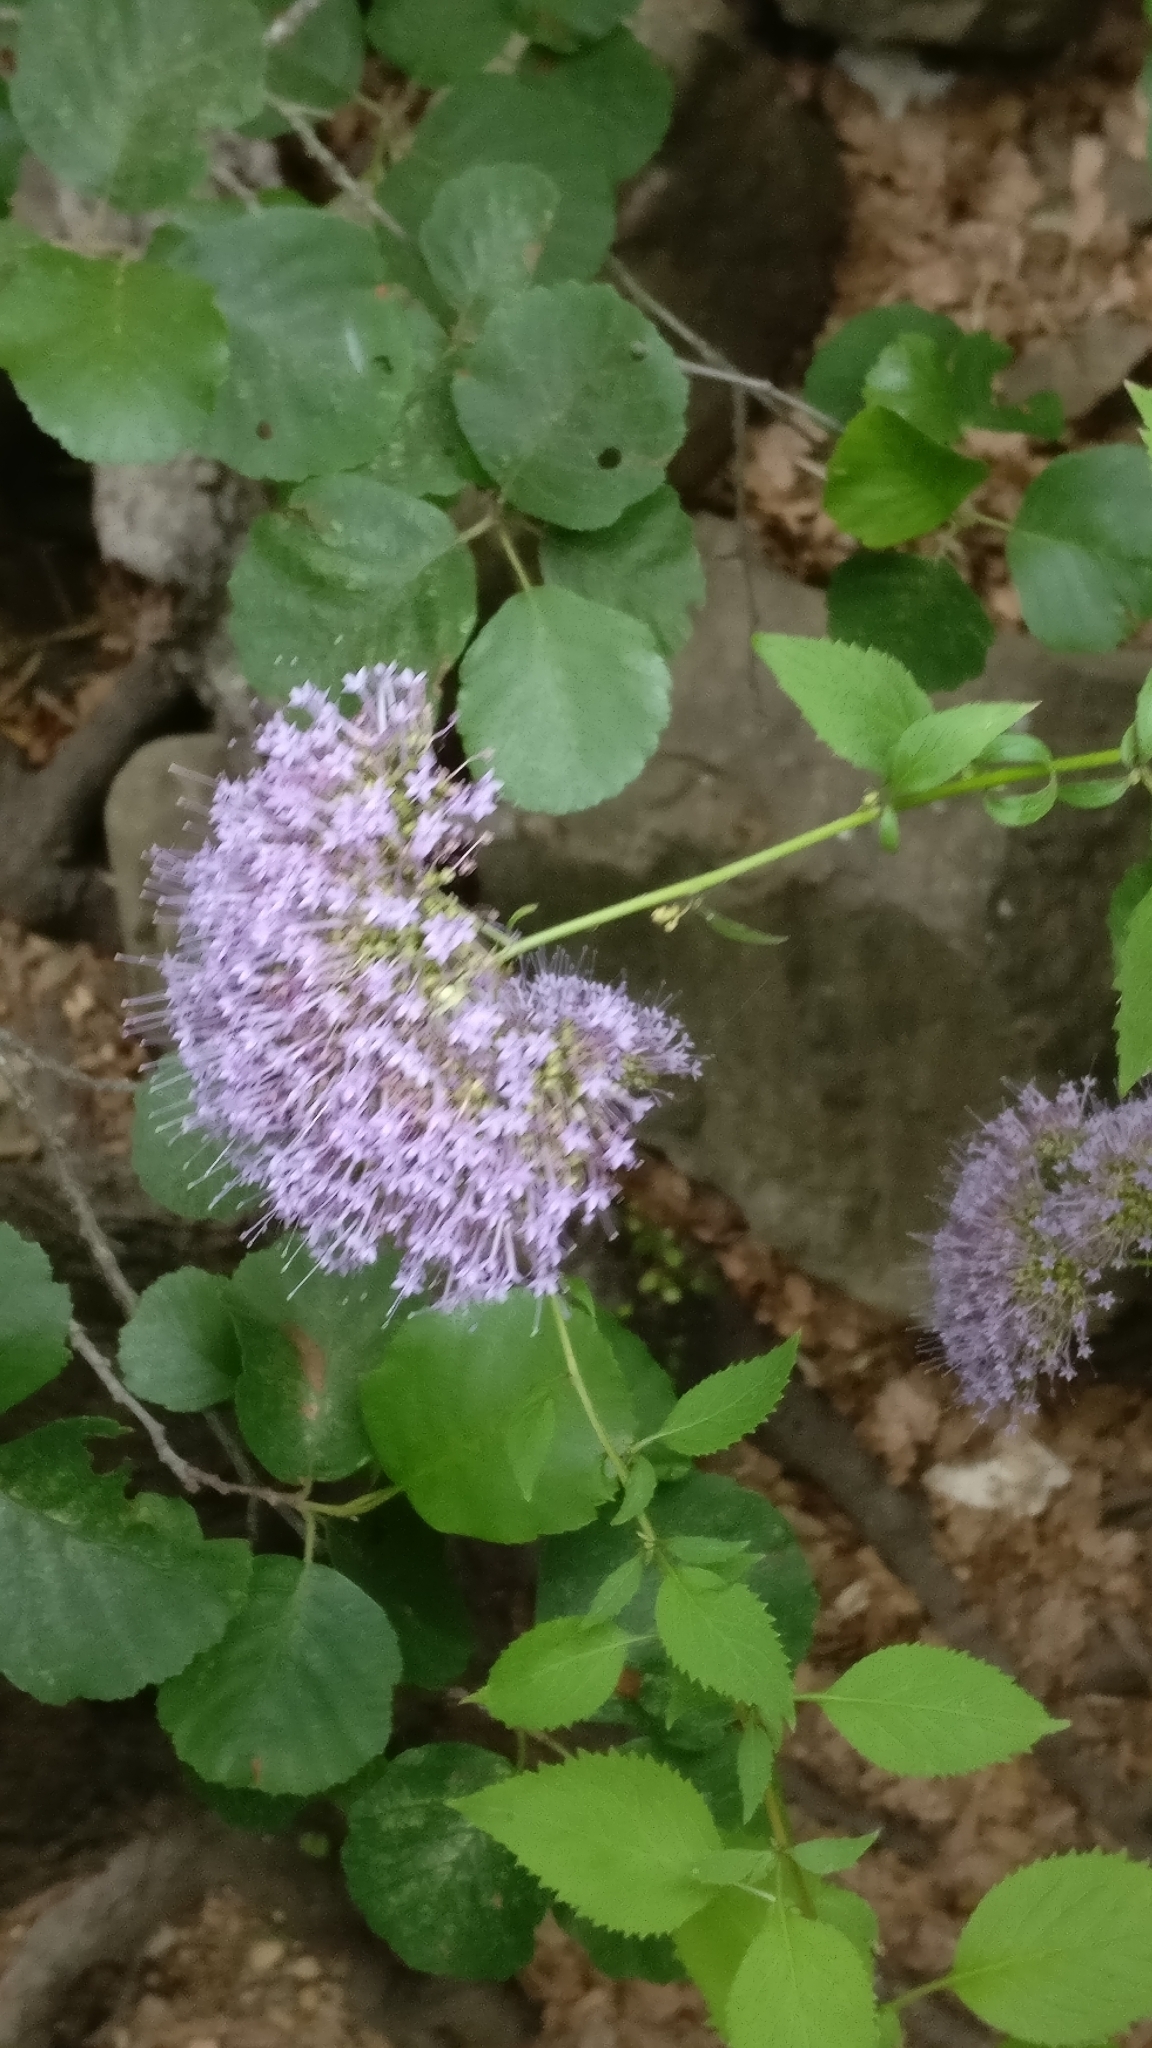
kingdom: Plantae
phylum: Tracheophyta
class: Magnoliopsida
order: Asterales
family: Campanulaceae
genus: Trachelium
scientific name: Trachelium caeruleum
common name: Throatwort
